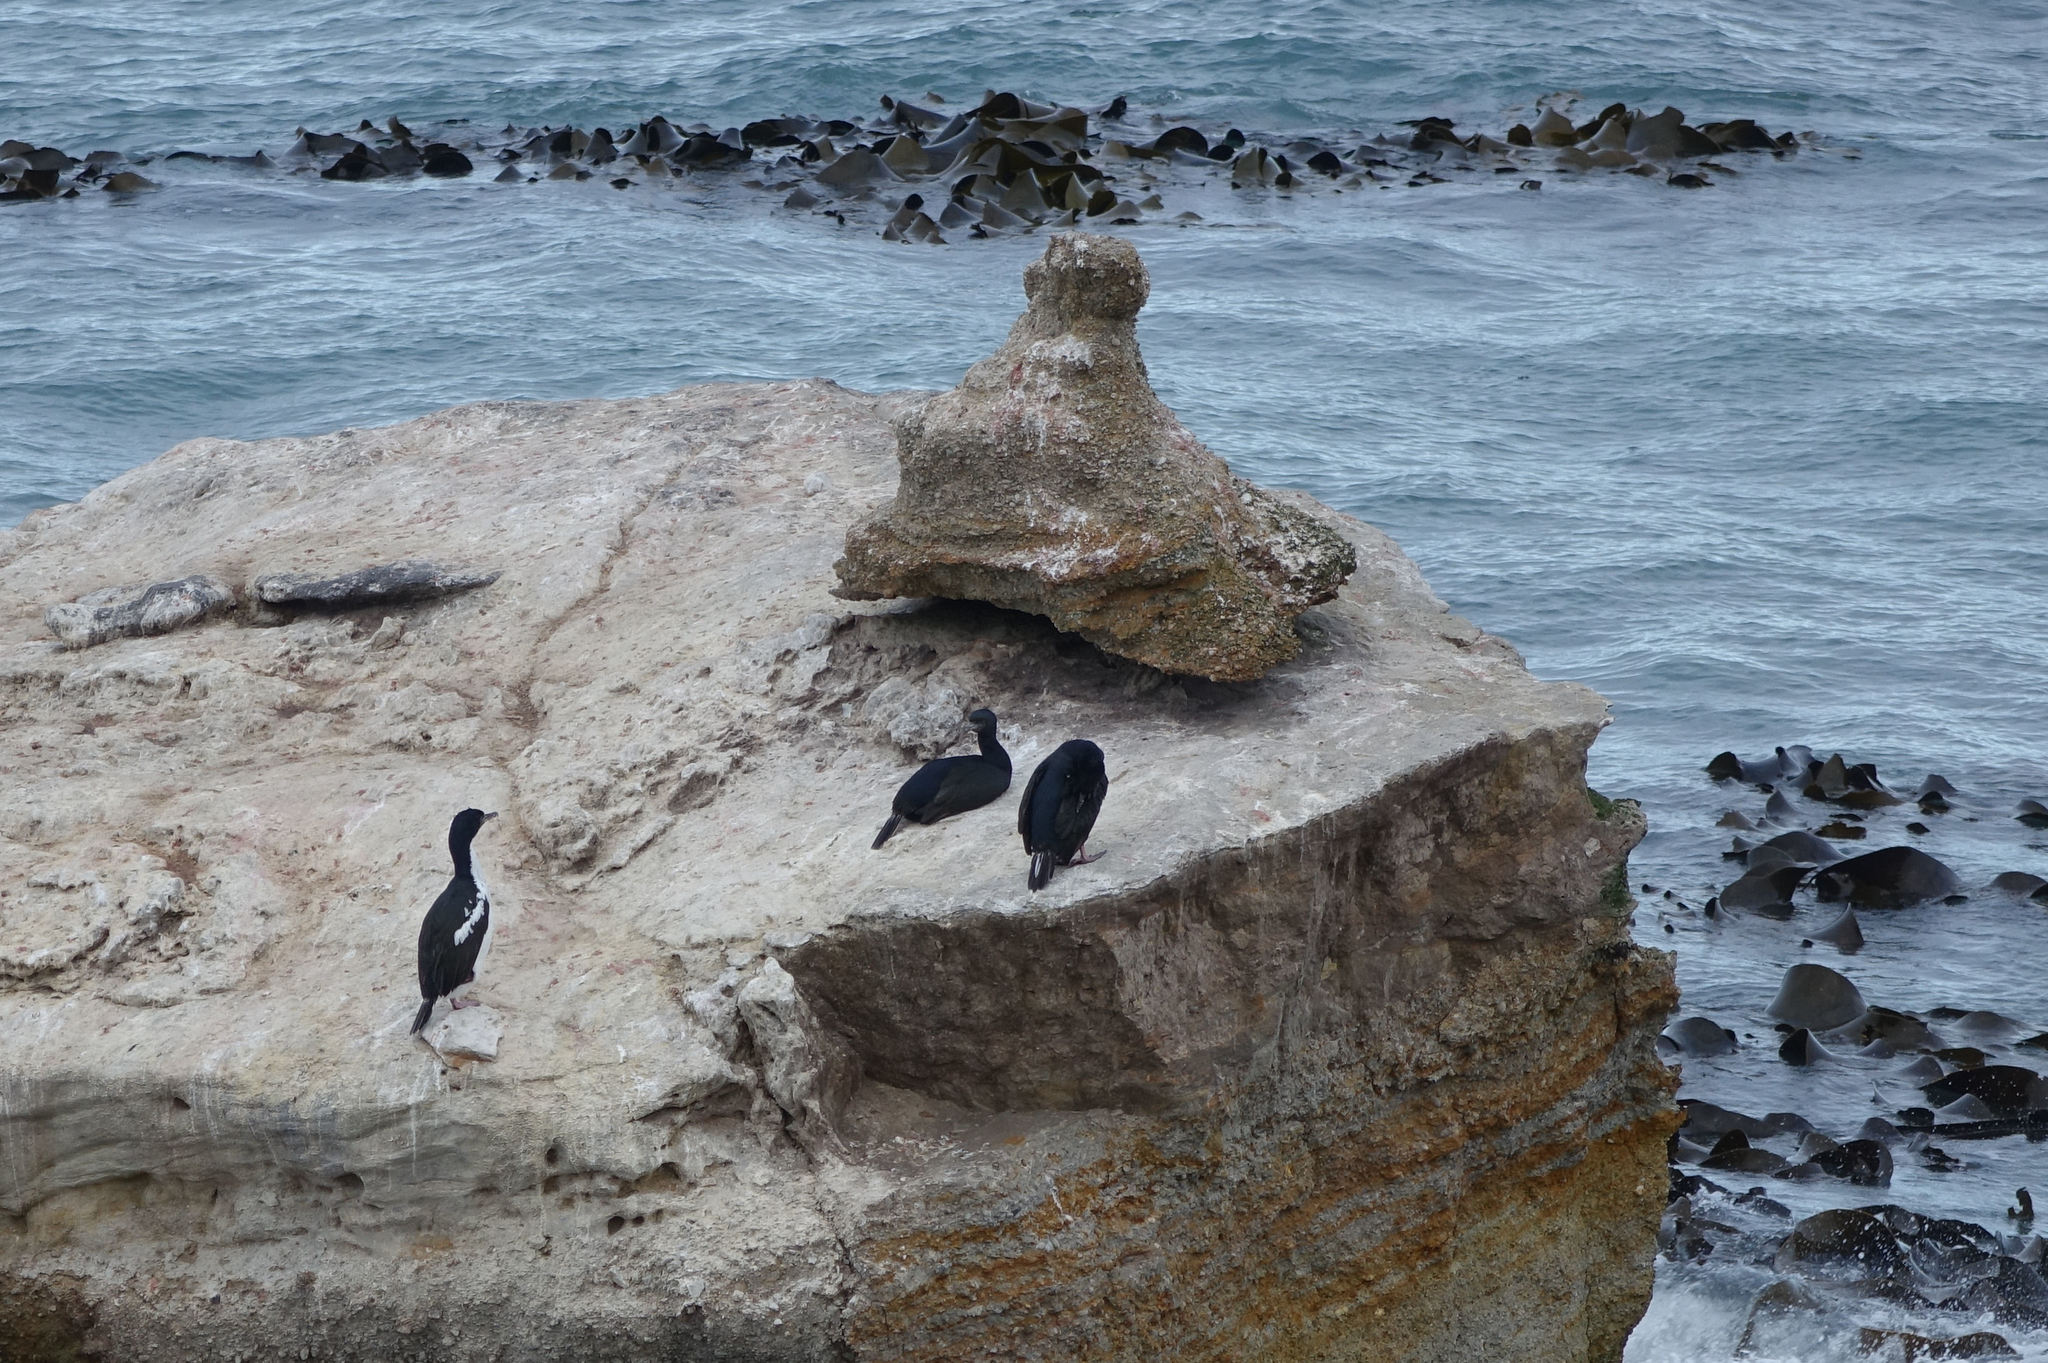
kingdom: Animalia
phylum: Chordata
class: Aves
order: Suliformes
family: Phalacrocoracidae
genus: Leucocarbo
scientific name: Leucocarbo chalconotus
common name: Stewart shag
